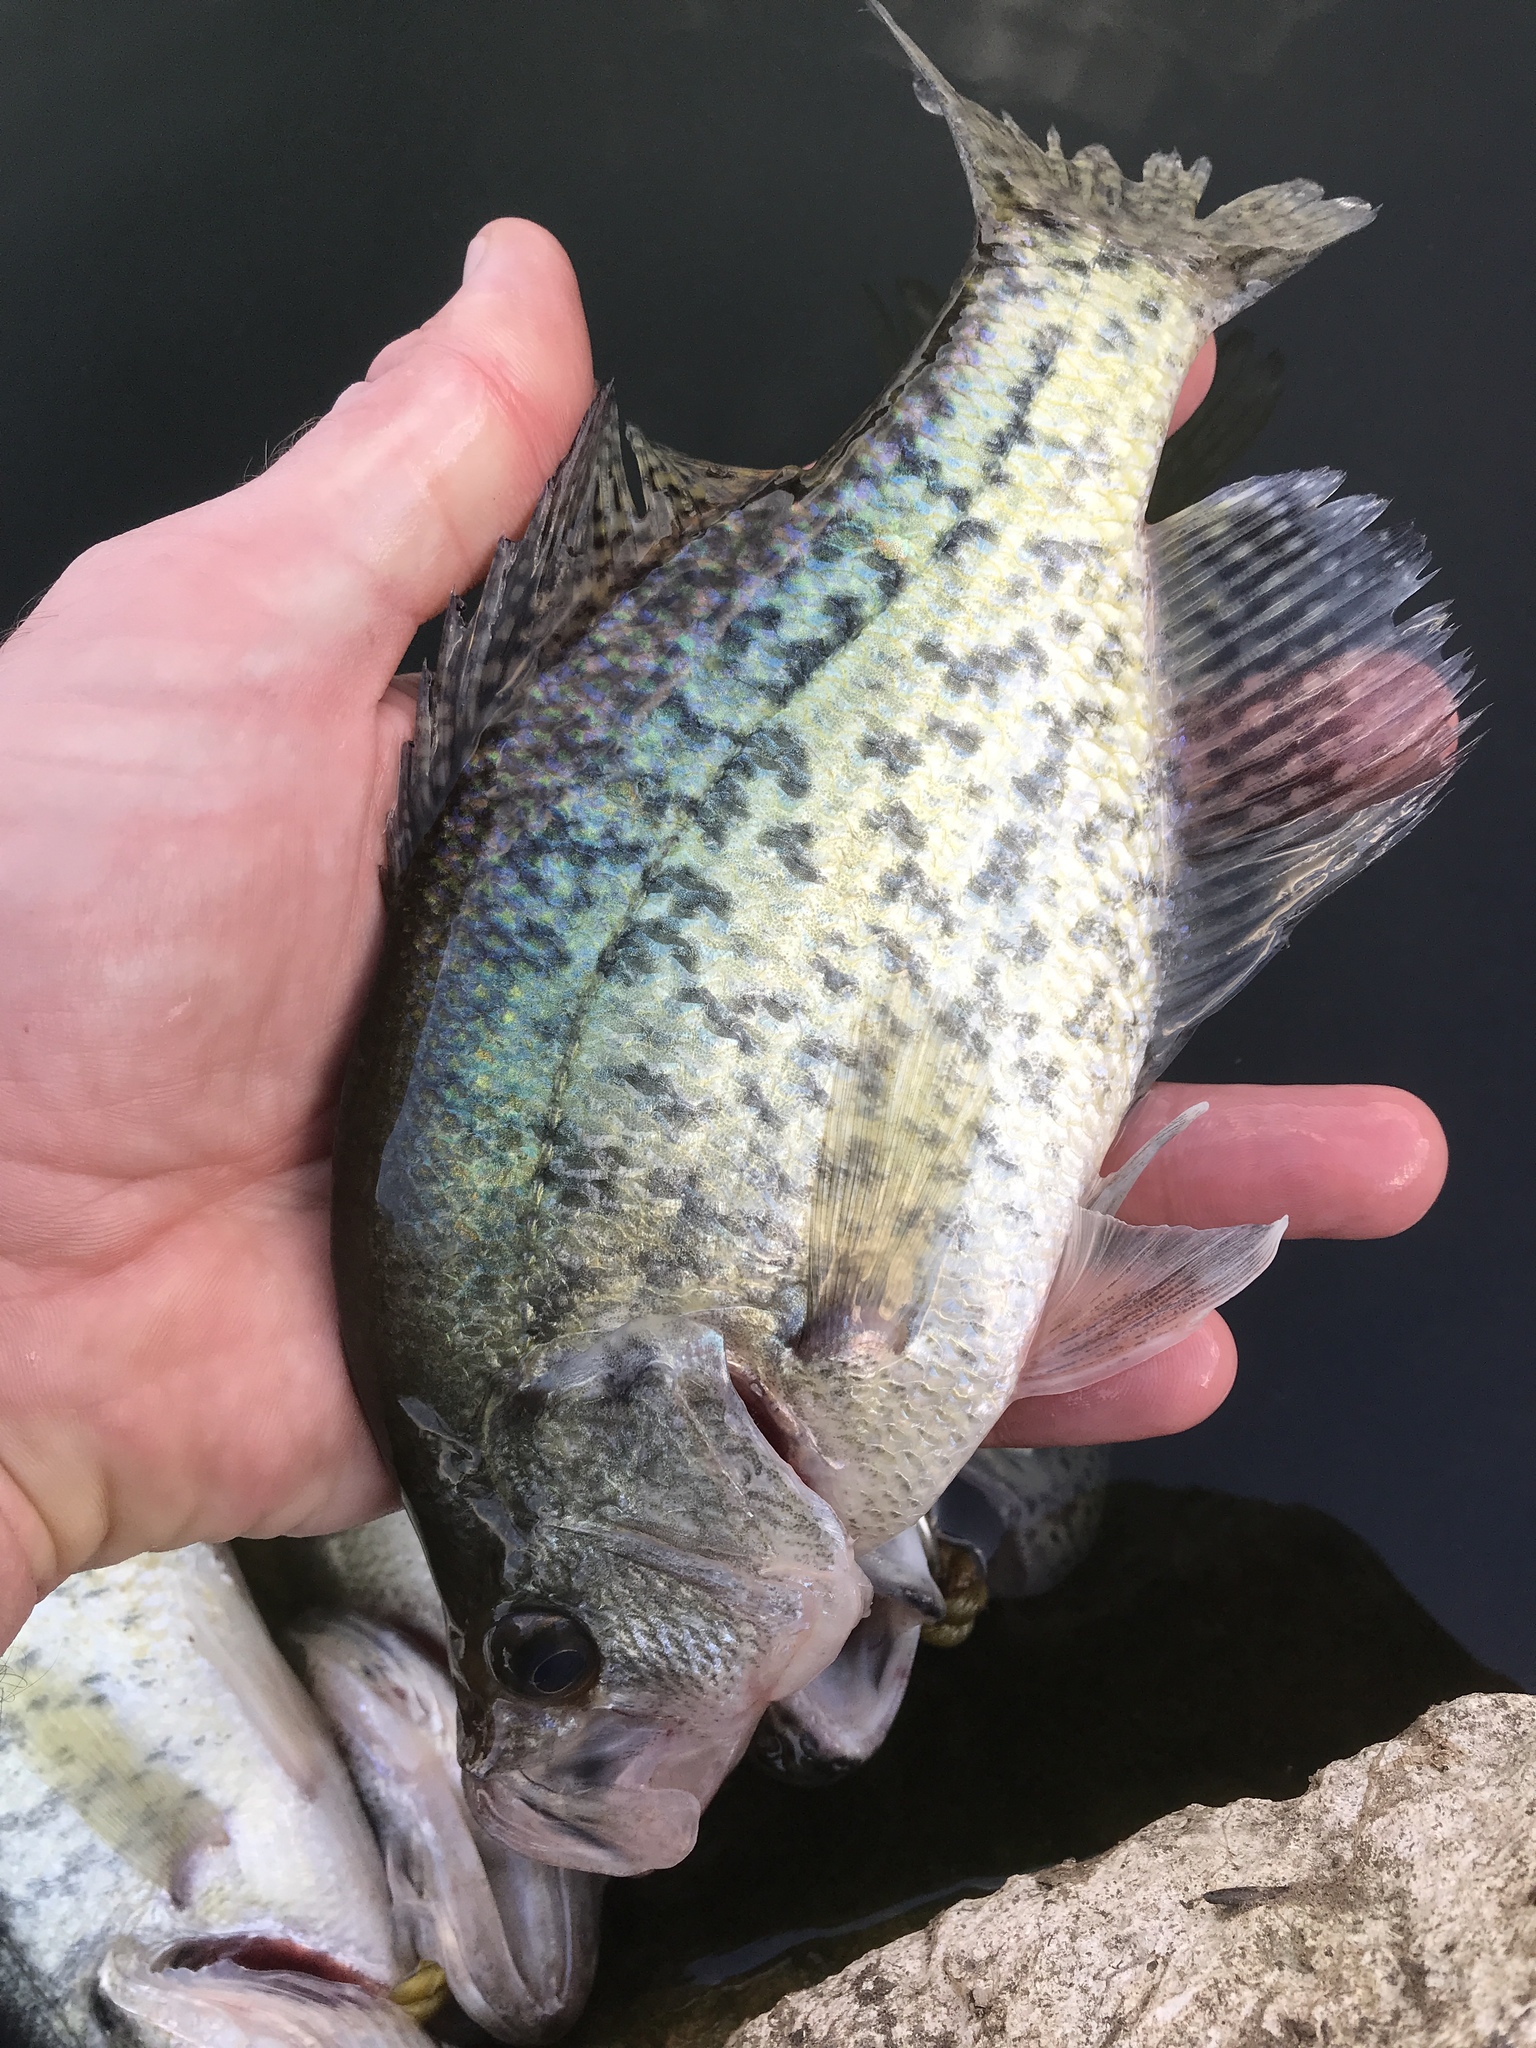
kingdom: Animalia
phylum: Chordata
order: Perciformes
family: Centrarchidae
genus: Pomoxis
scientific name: Pomoxis nigromaculatus
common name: Black crappie
